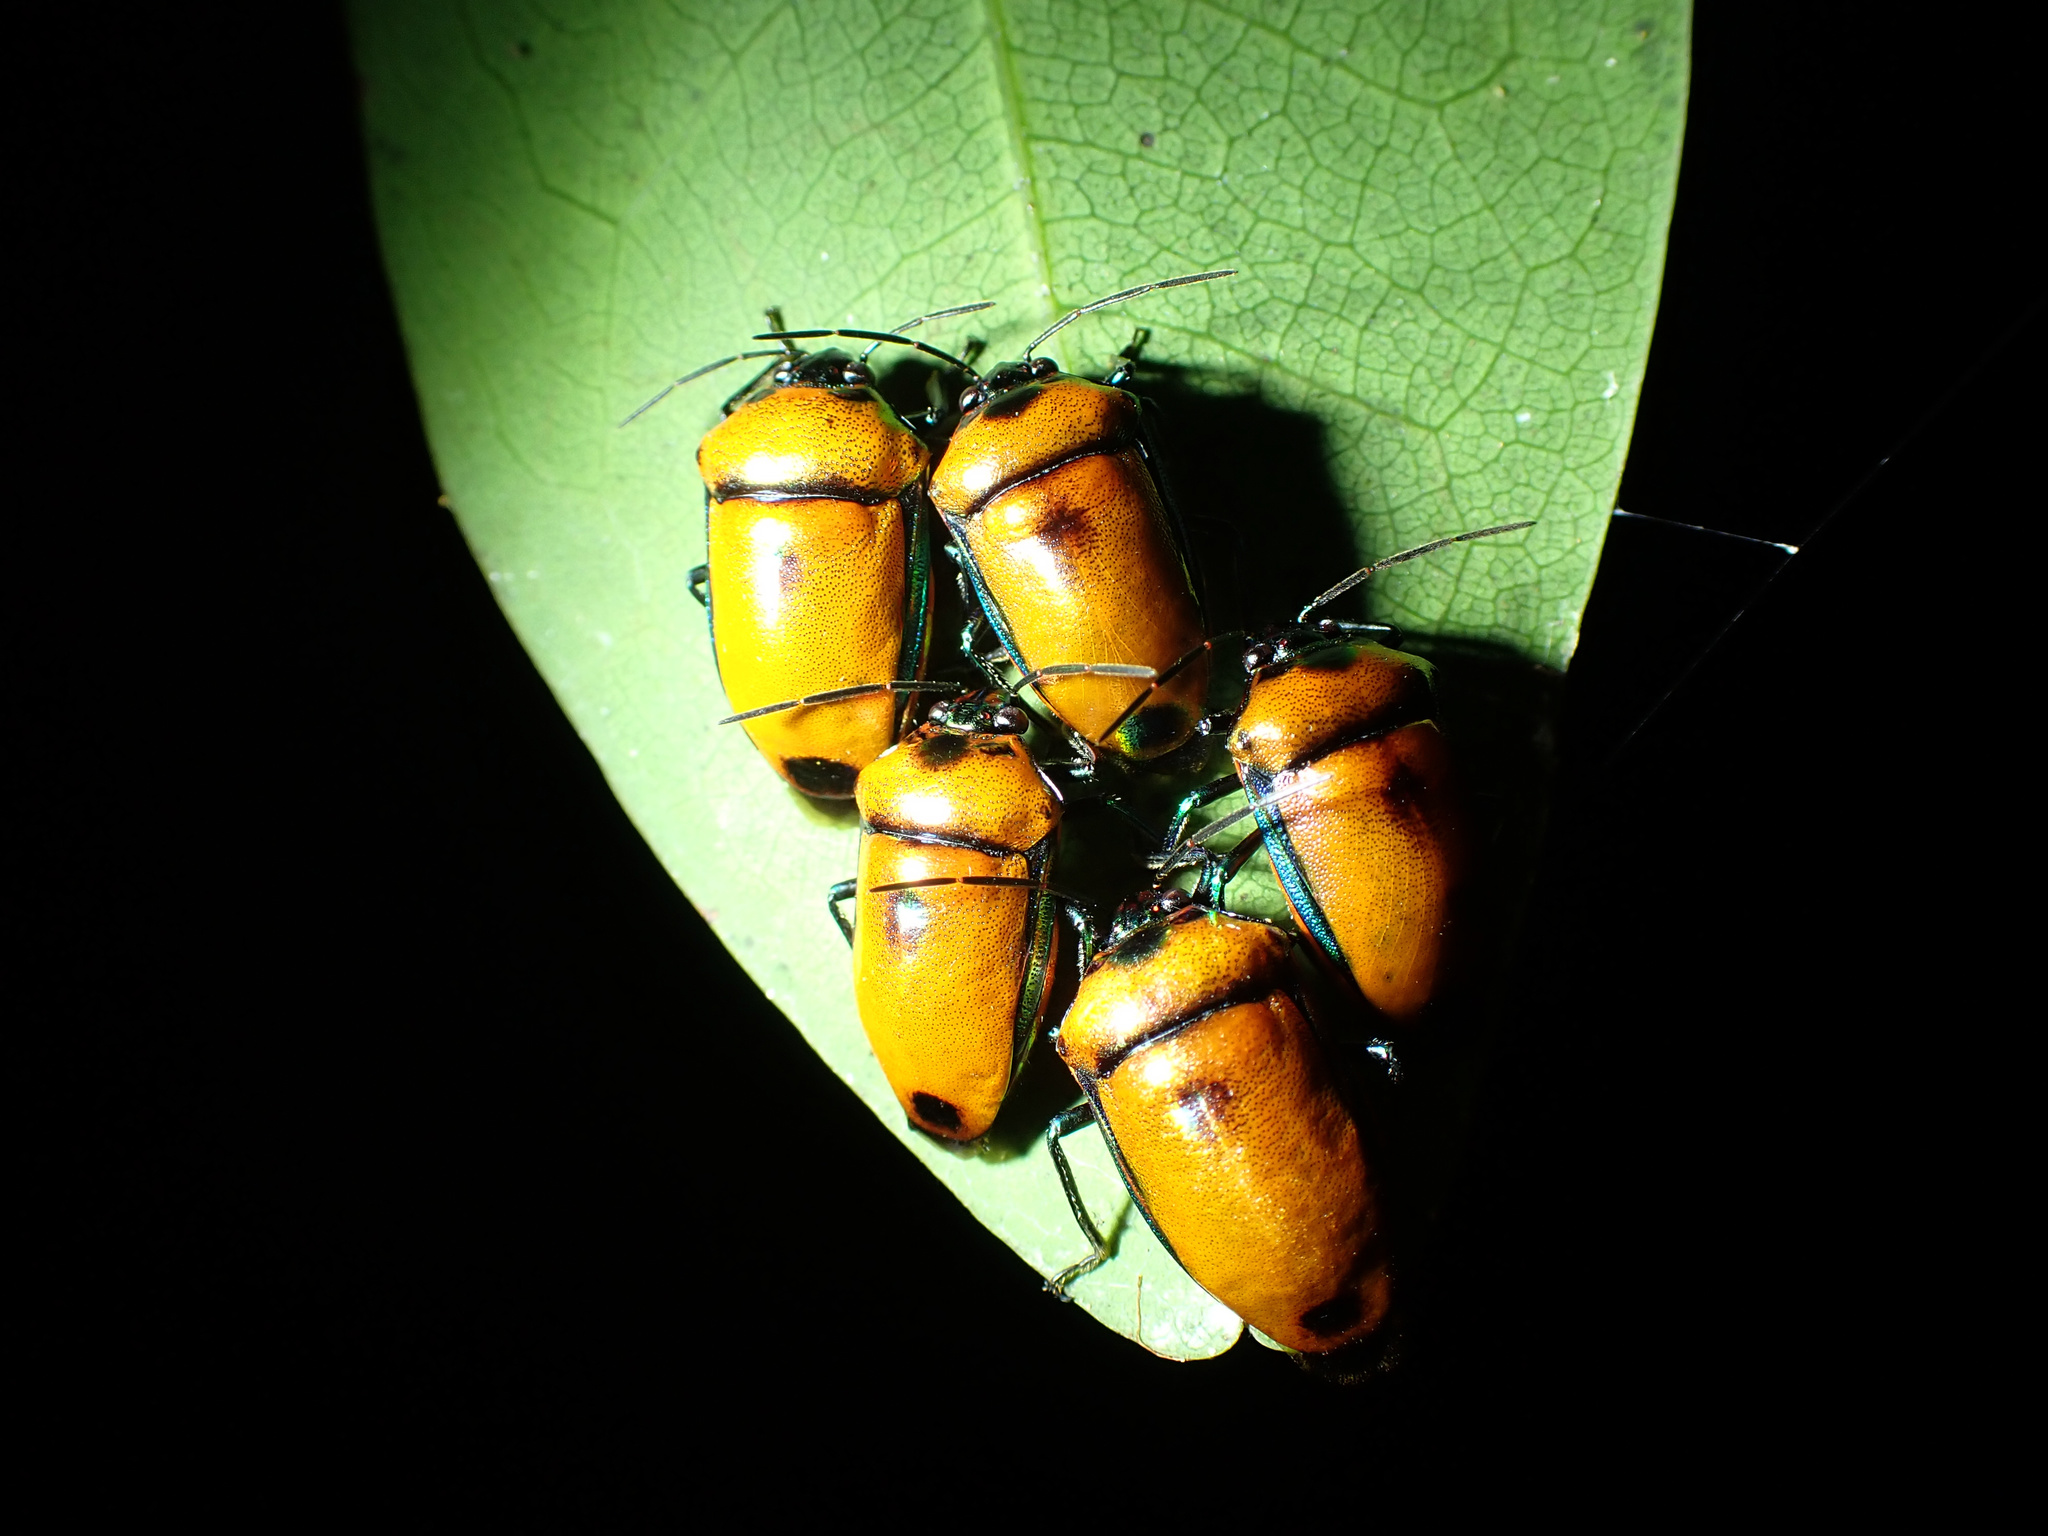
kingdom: Animalia
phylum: Arthropoda
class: Insecta
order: Hemiptera
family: Scutelleridae
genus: Calliphara
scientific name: Calliphara regalis
